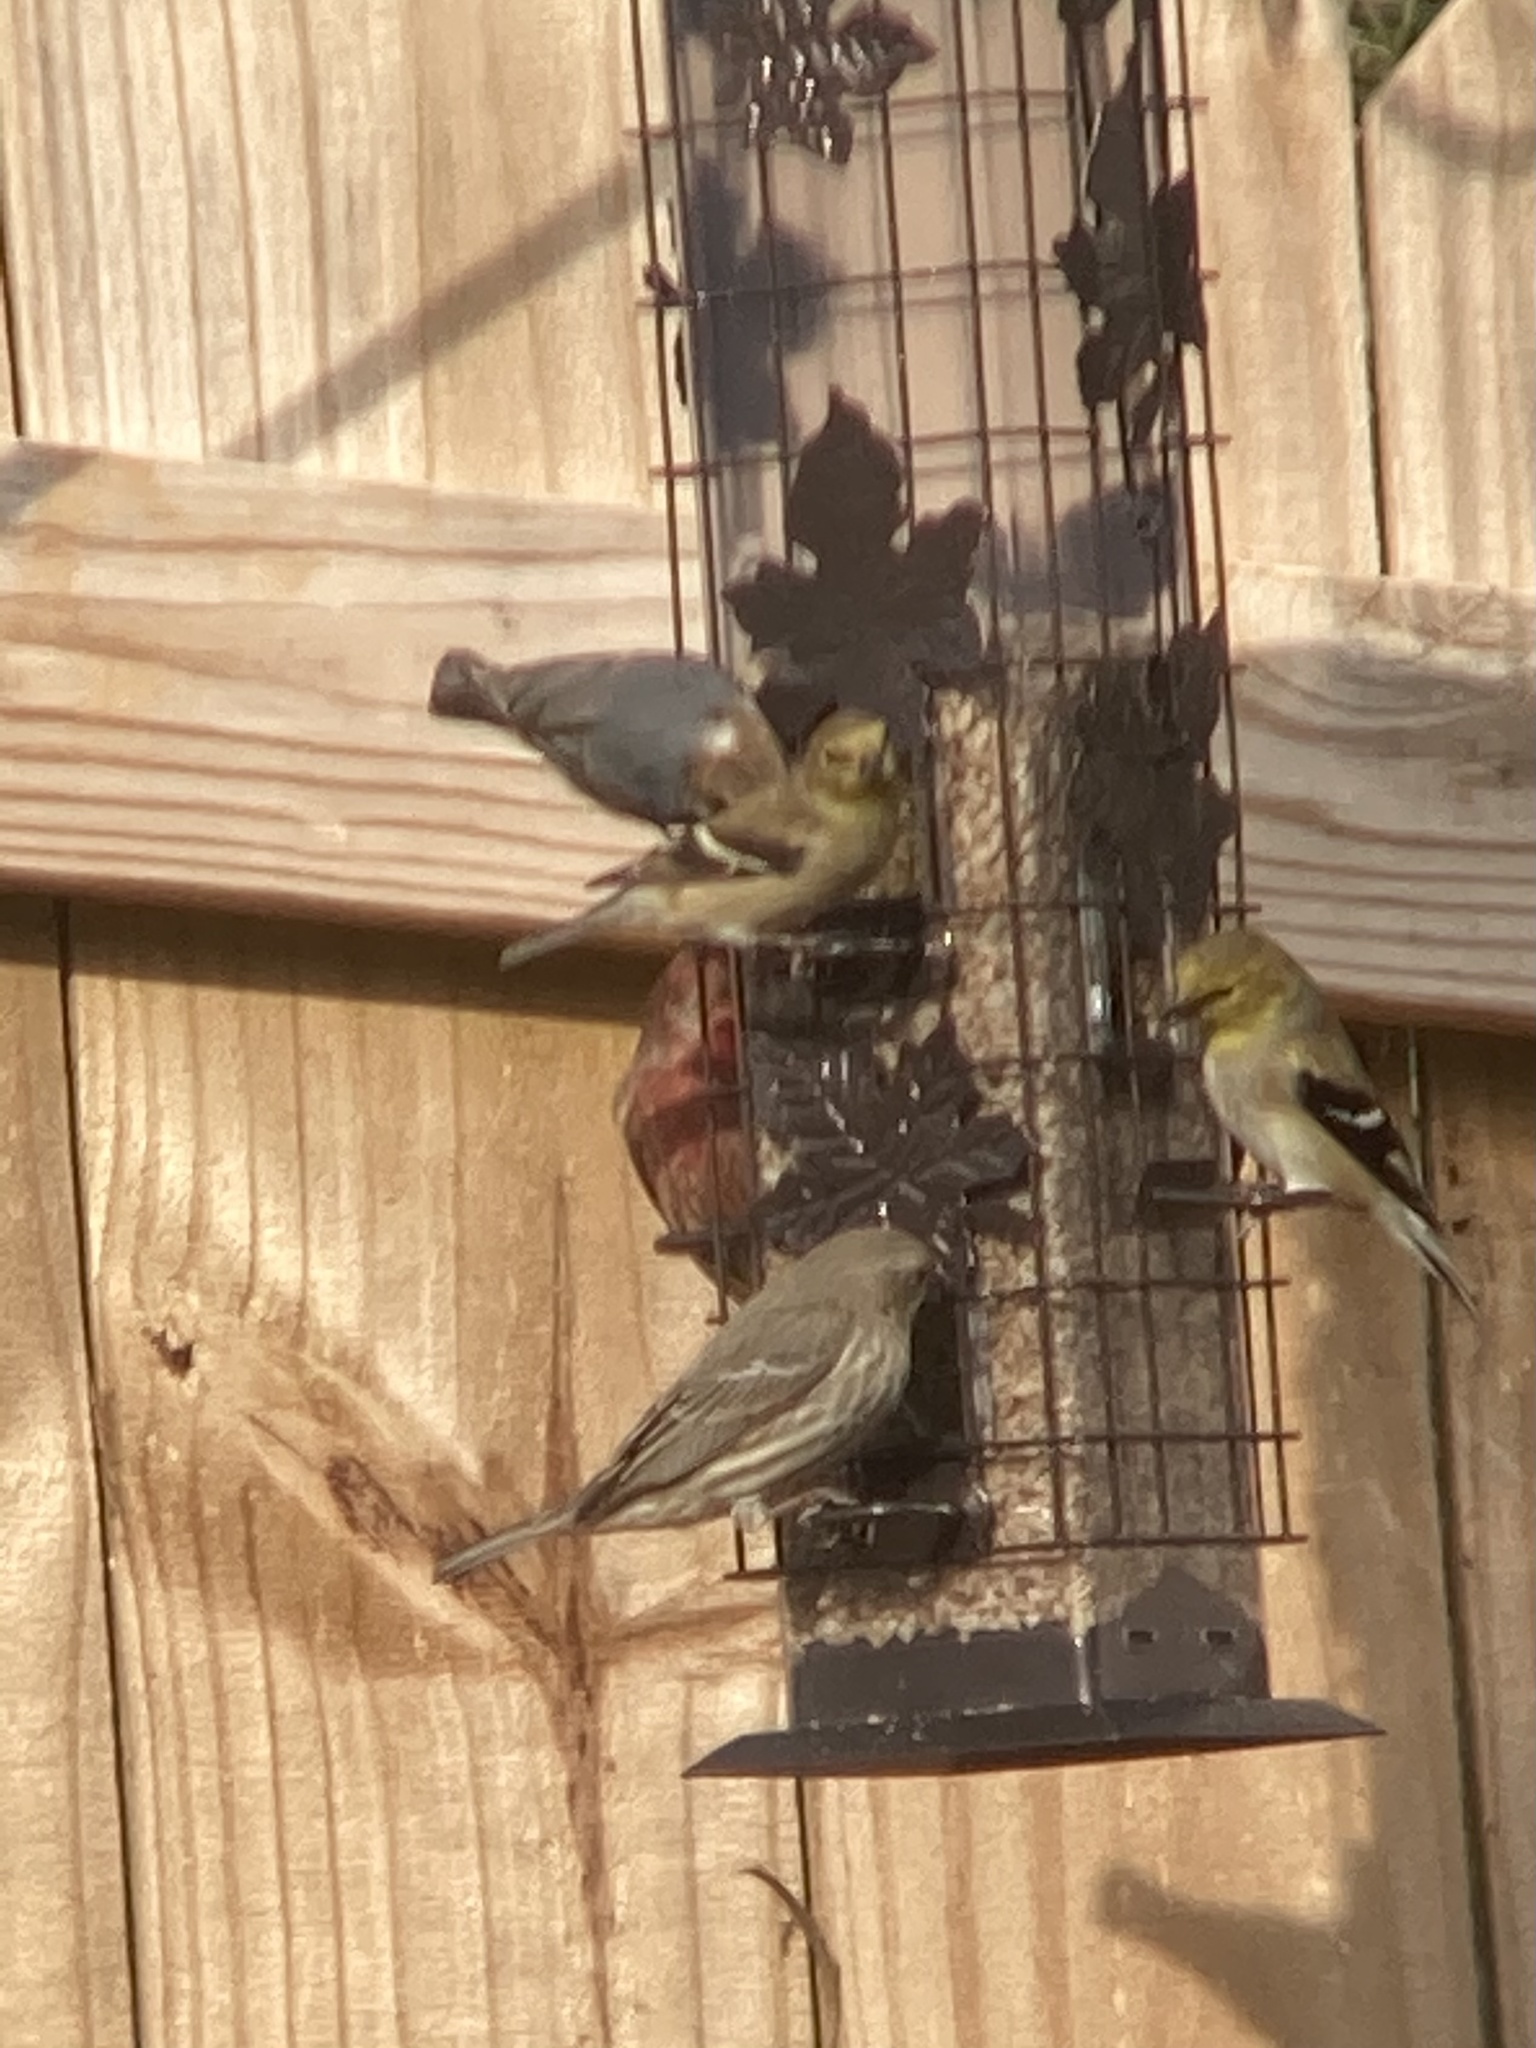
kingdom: Animalia
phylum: Chordata
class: Aves
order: Passeriformes
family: Sittidae
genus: Sitta
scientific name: Sitta pusilla
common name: Brown-headed nuthatch
